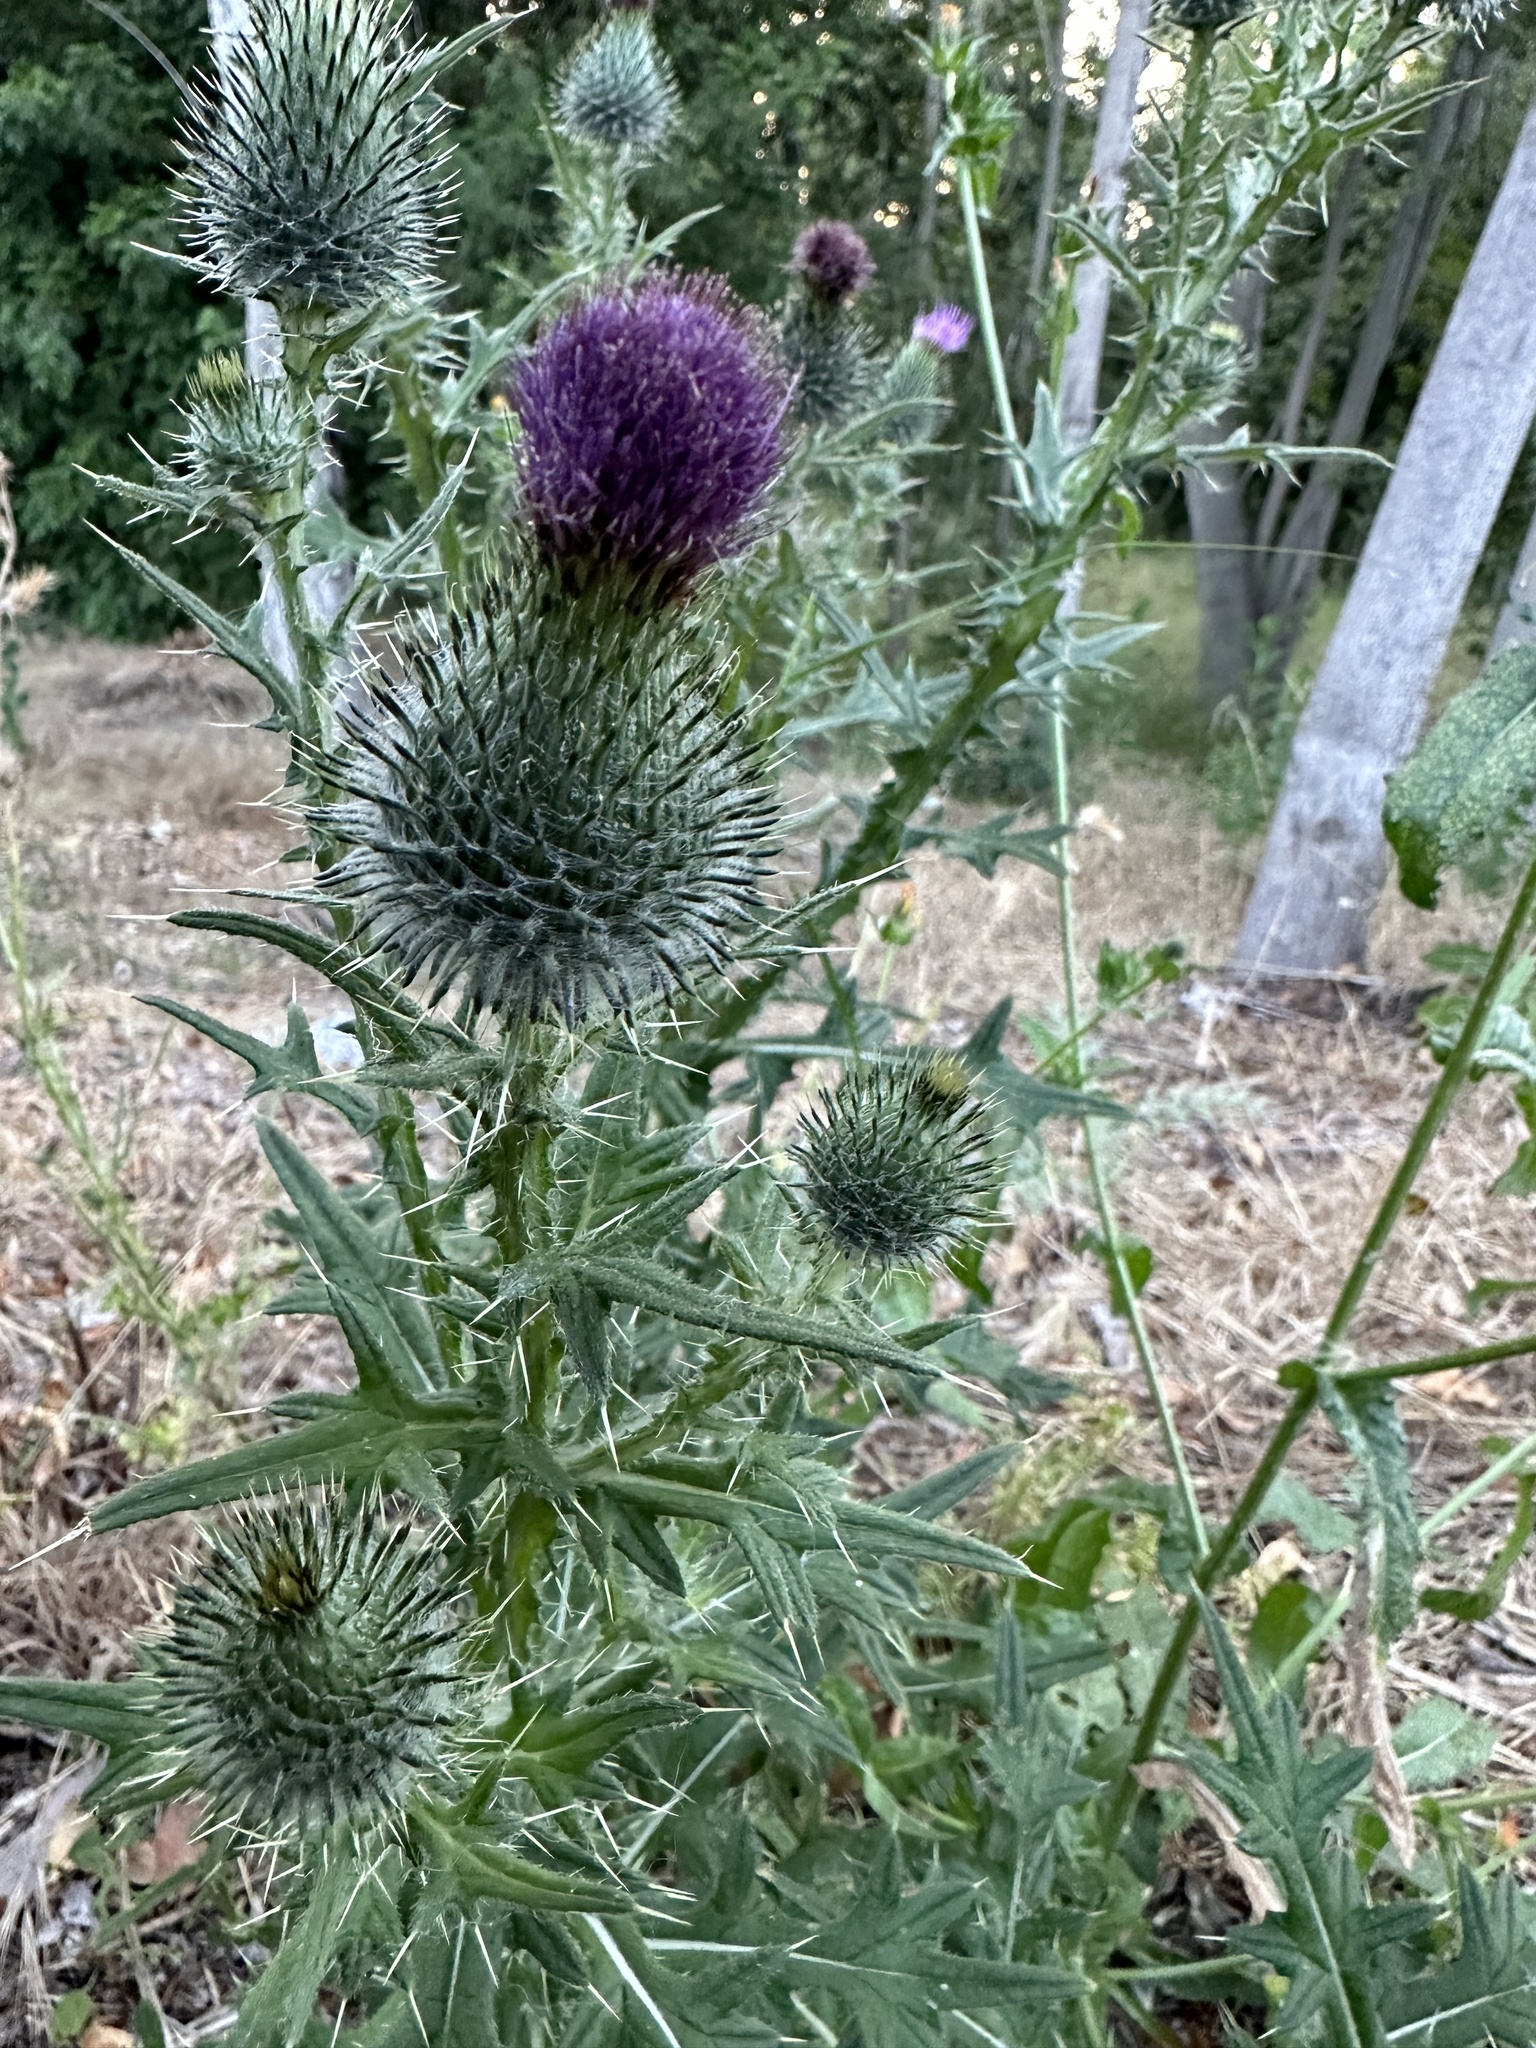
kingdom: Plantae
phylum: Tracheophyta
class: Magnoliopsida
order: Asterales
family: Asteraceae
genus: Cirsium
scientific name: Cirsium vulgare
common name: Bull thistle
